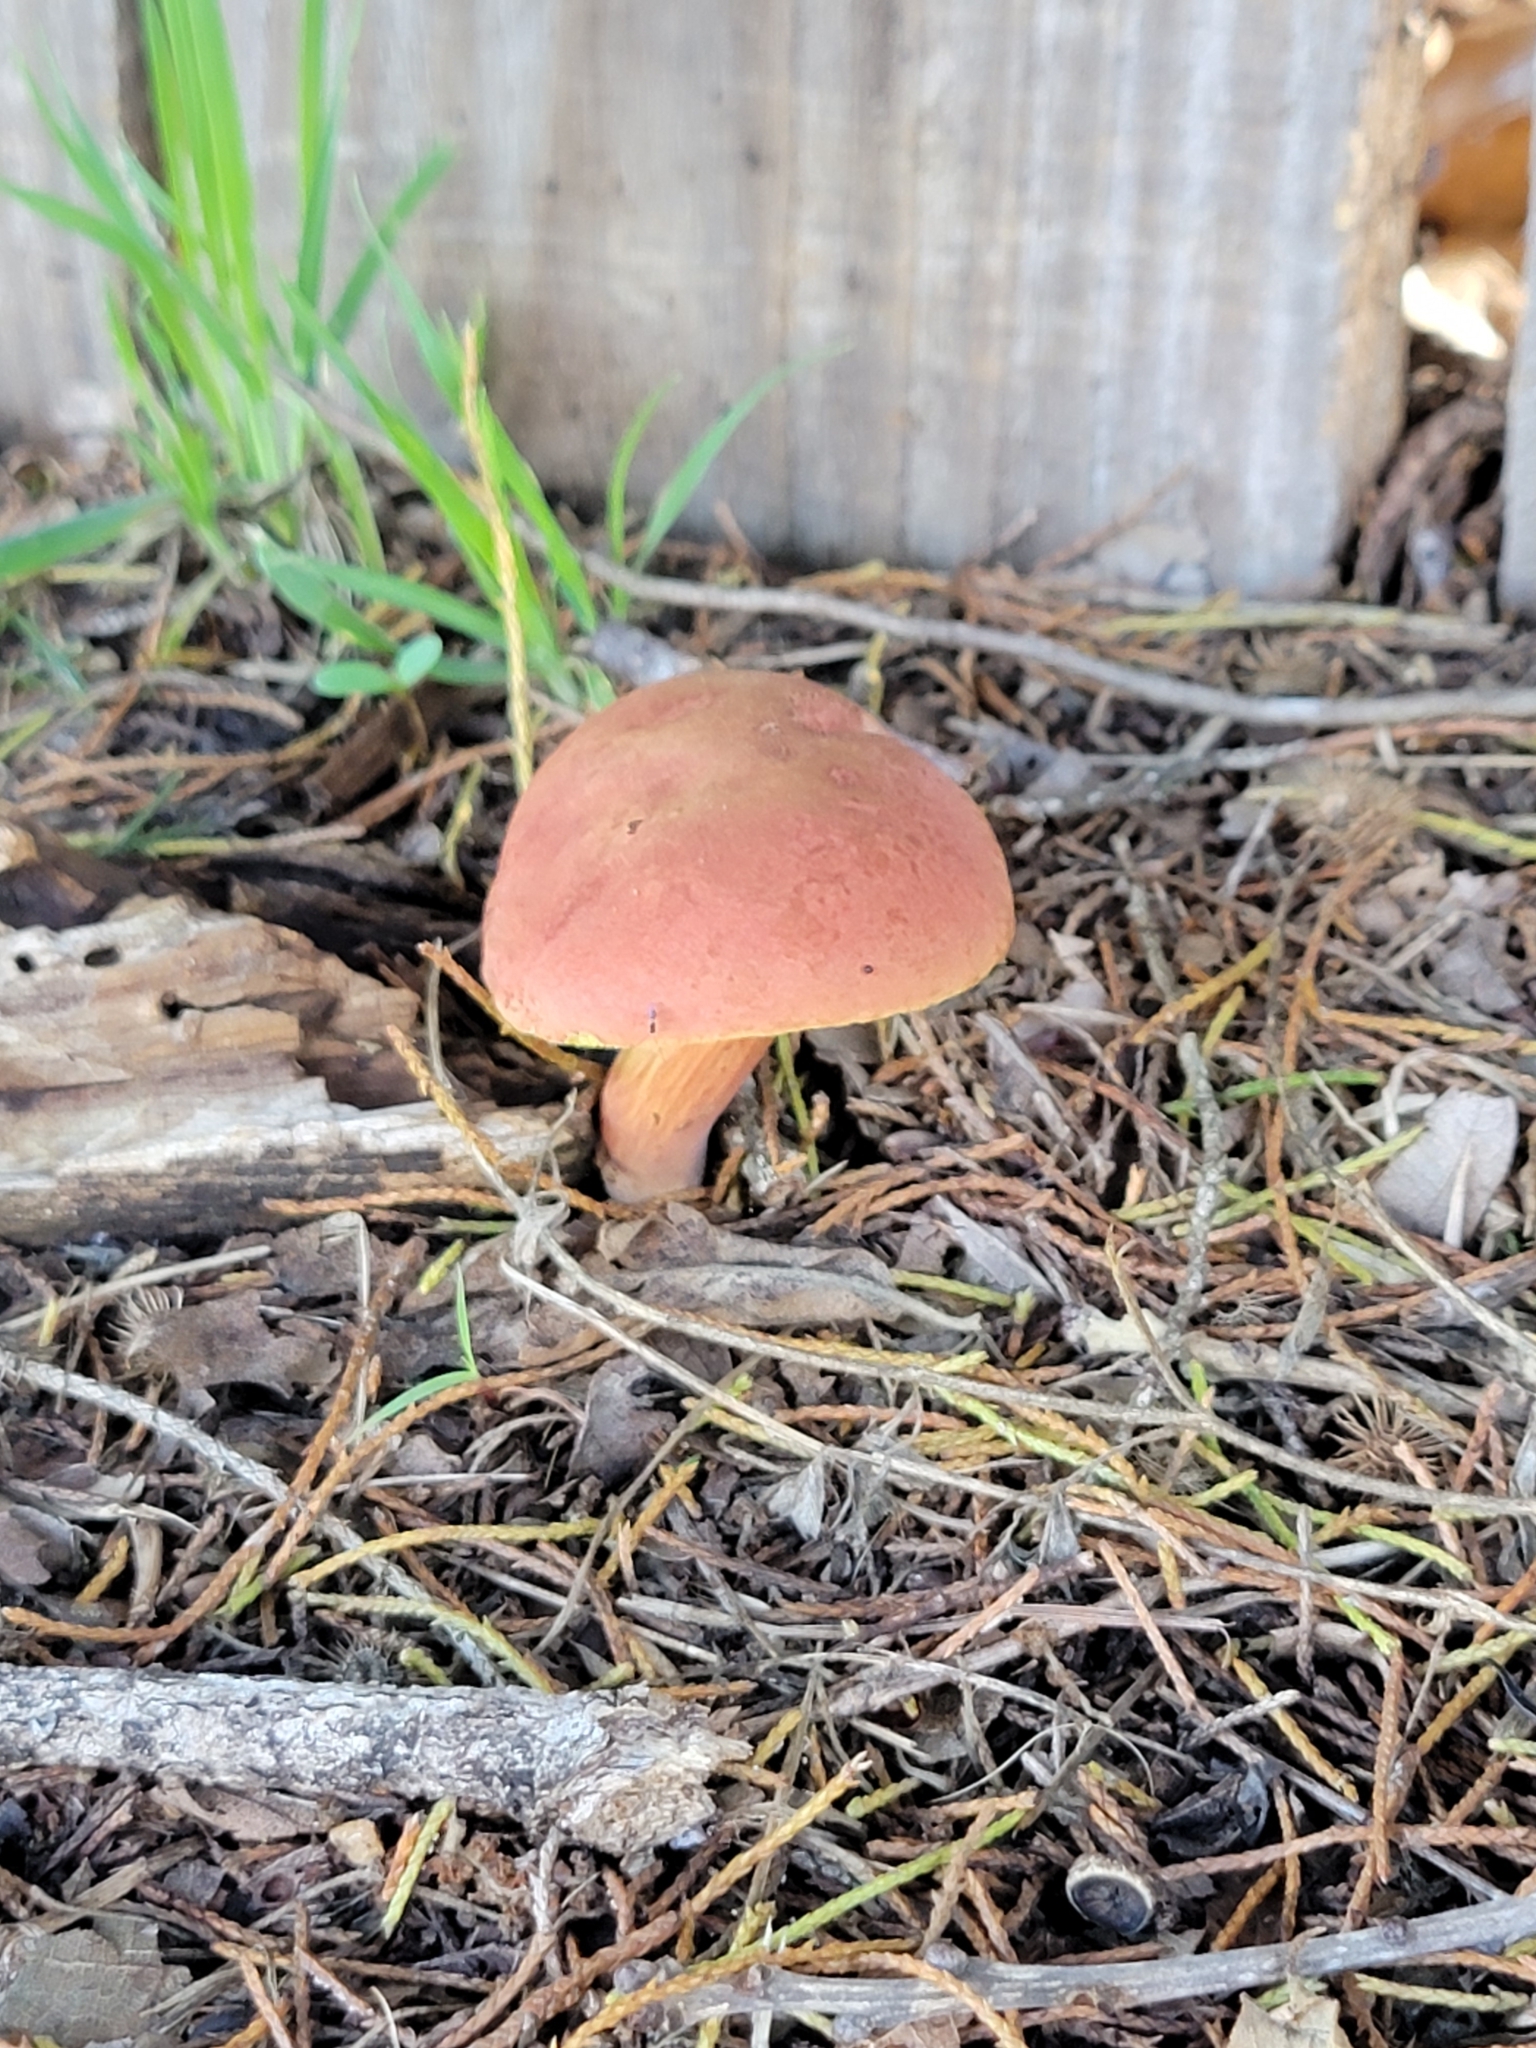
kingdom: Fungi
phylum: Basidiomycota
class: Agaricomycetes
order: Boletales
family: Boletaceae
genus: Hortiboletus
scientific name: Hortiboletus rubellus
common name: Ruby bolete
